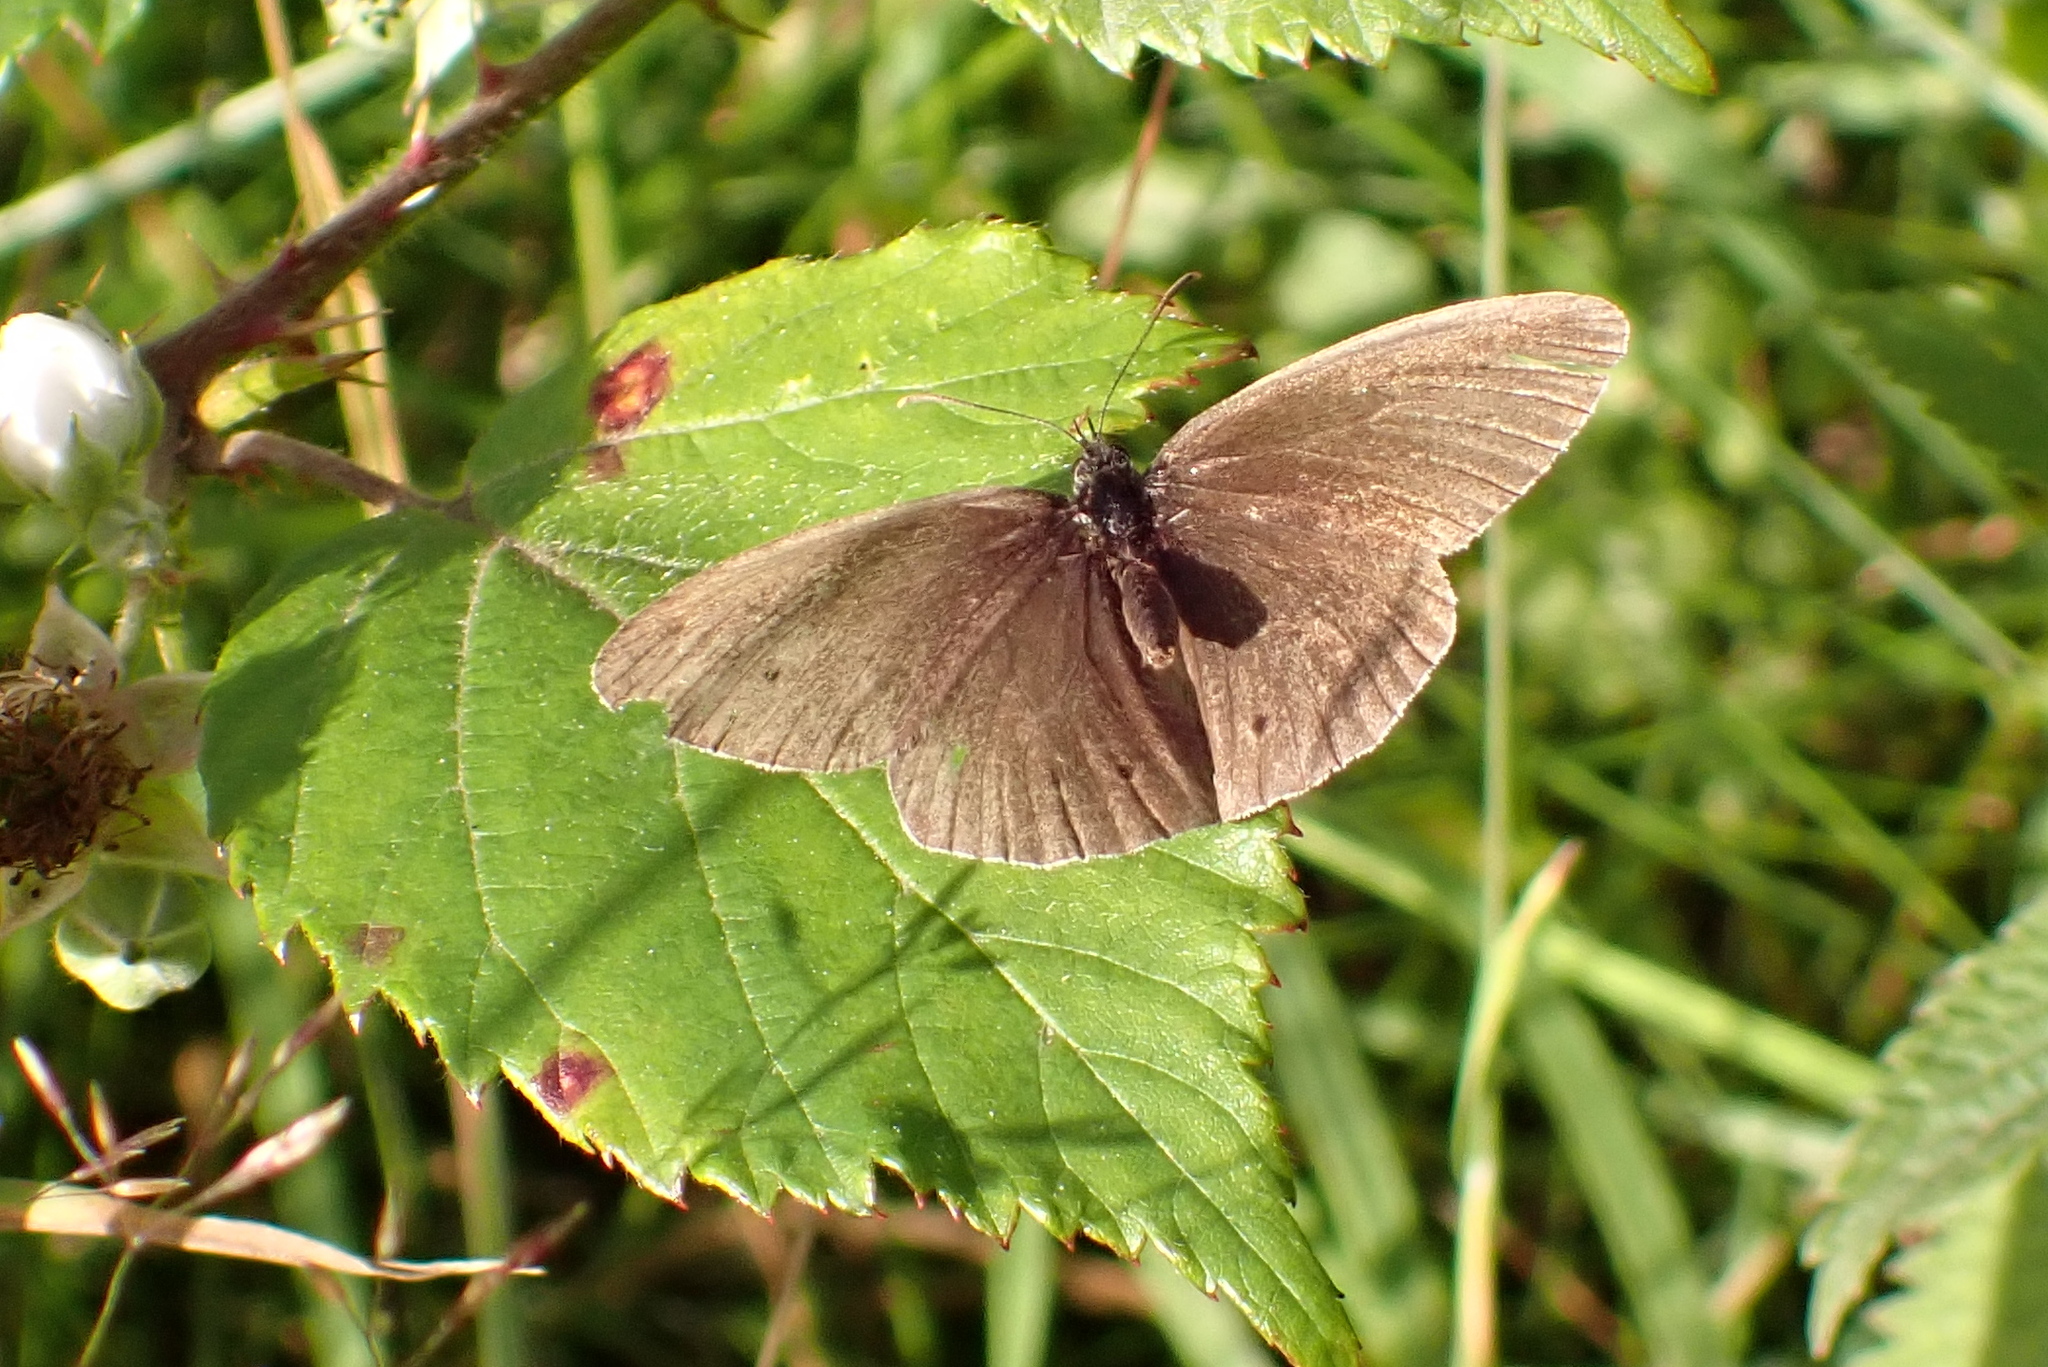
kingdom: Animalia
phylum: Arthropoda
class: Insecta
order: Lepidoptera
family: Nymphalidae
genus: Aphantopus
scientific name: Aphantopus hyperantus
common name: Ringlet
